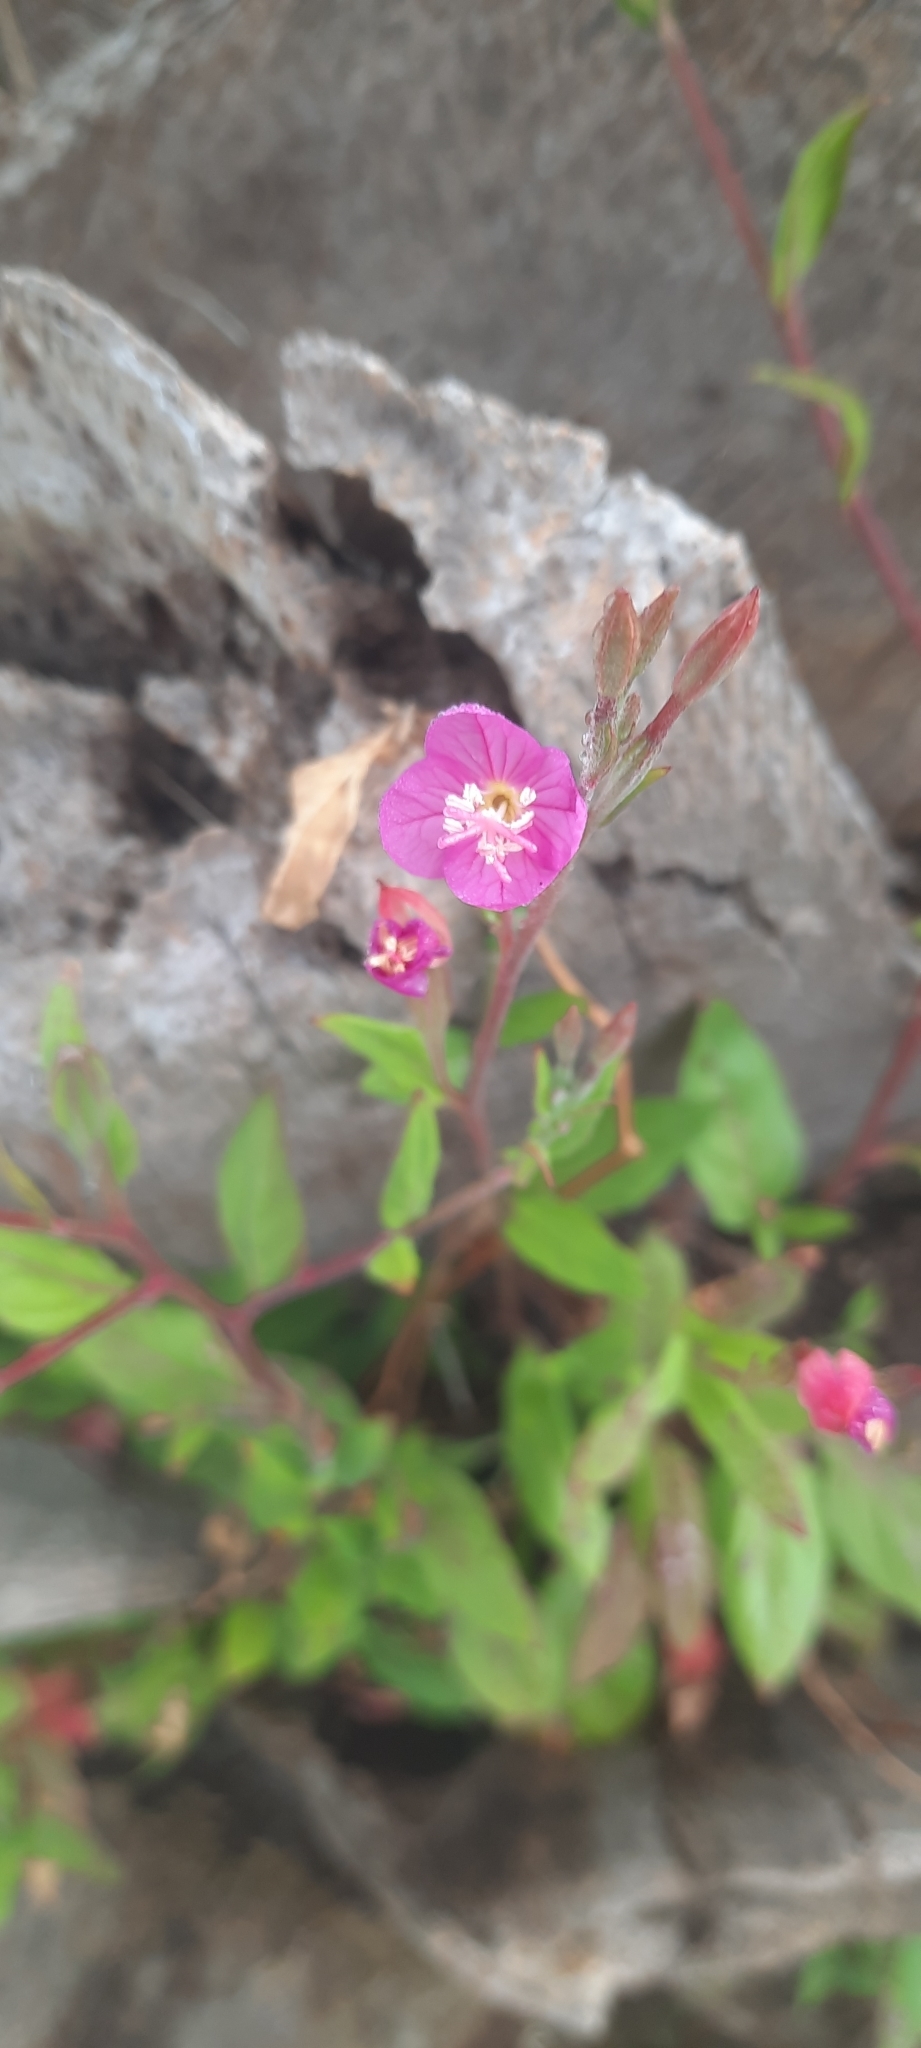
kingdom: Plantae
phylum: Tracheophyta
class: Magnoliopsida
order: Myrtales
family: Onagraceae
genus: Oenothera
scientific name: Oenothera rosea
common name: Rosy evening-primrose
